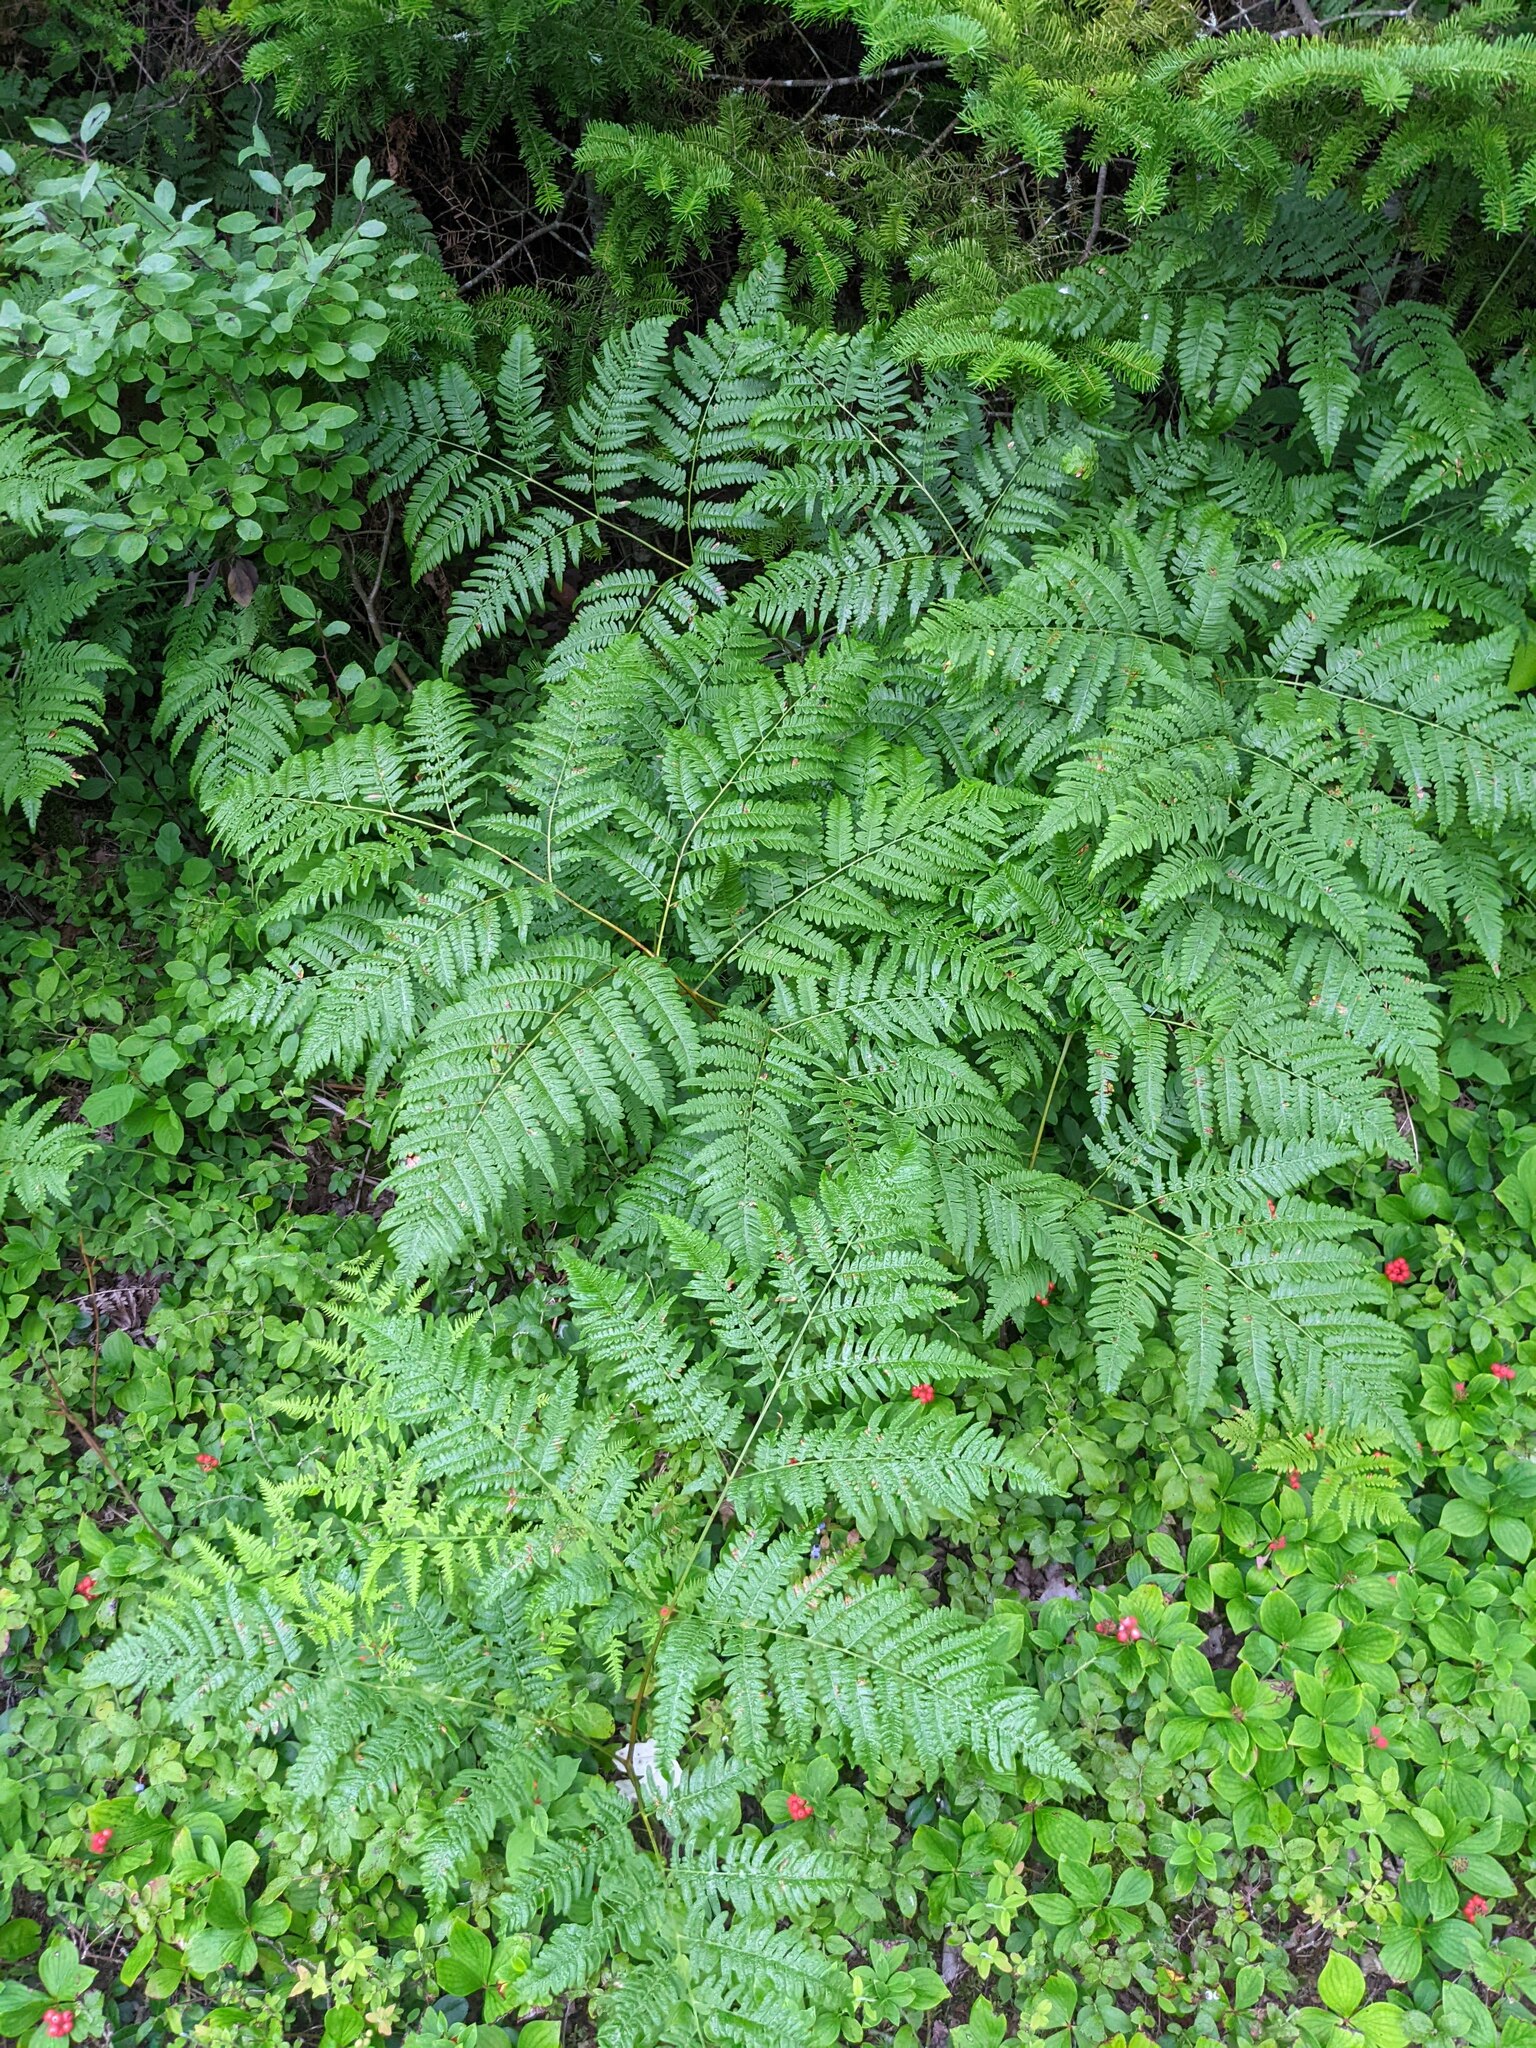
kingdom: Plantae
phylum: Tracheophyta
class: Polypodiopsida
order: Polypodiales
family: Dennstaedtiaceae
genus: Pteridium
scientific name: Pteridium aquilinum
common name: Bracken
